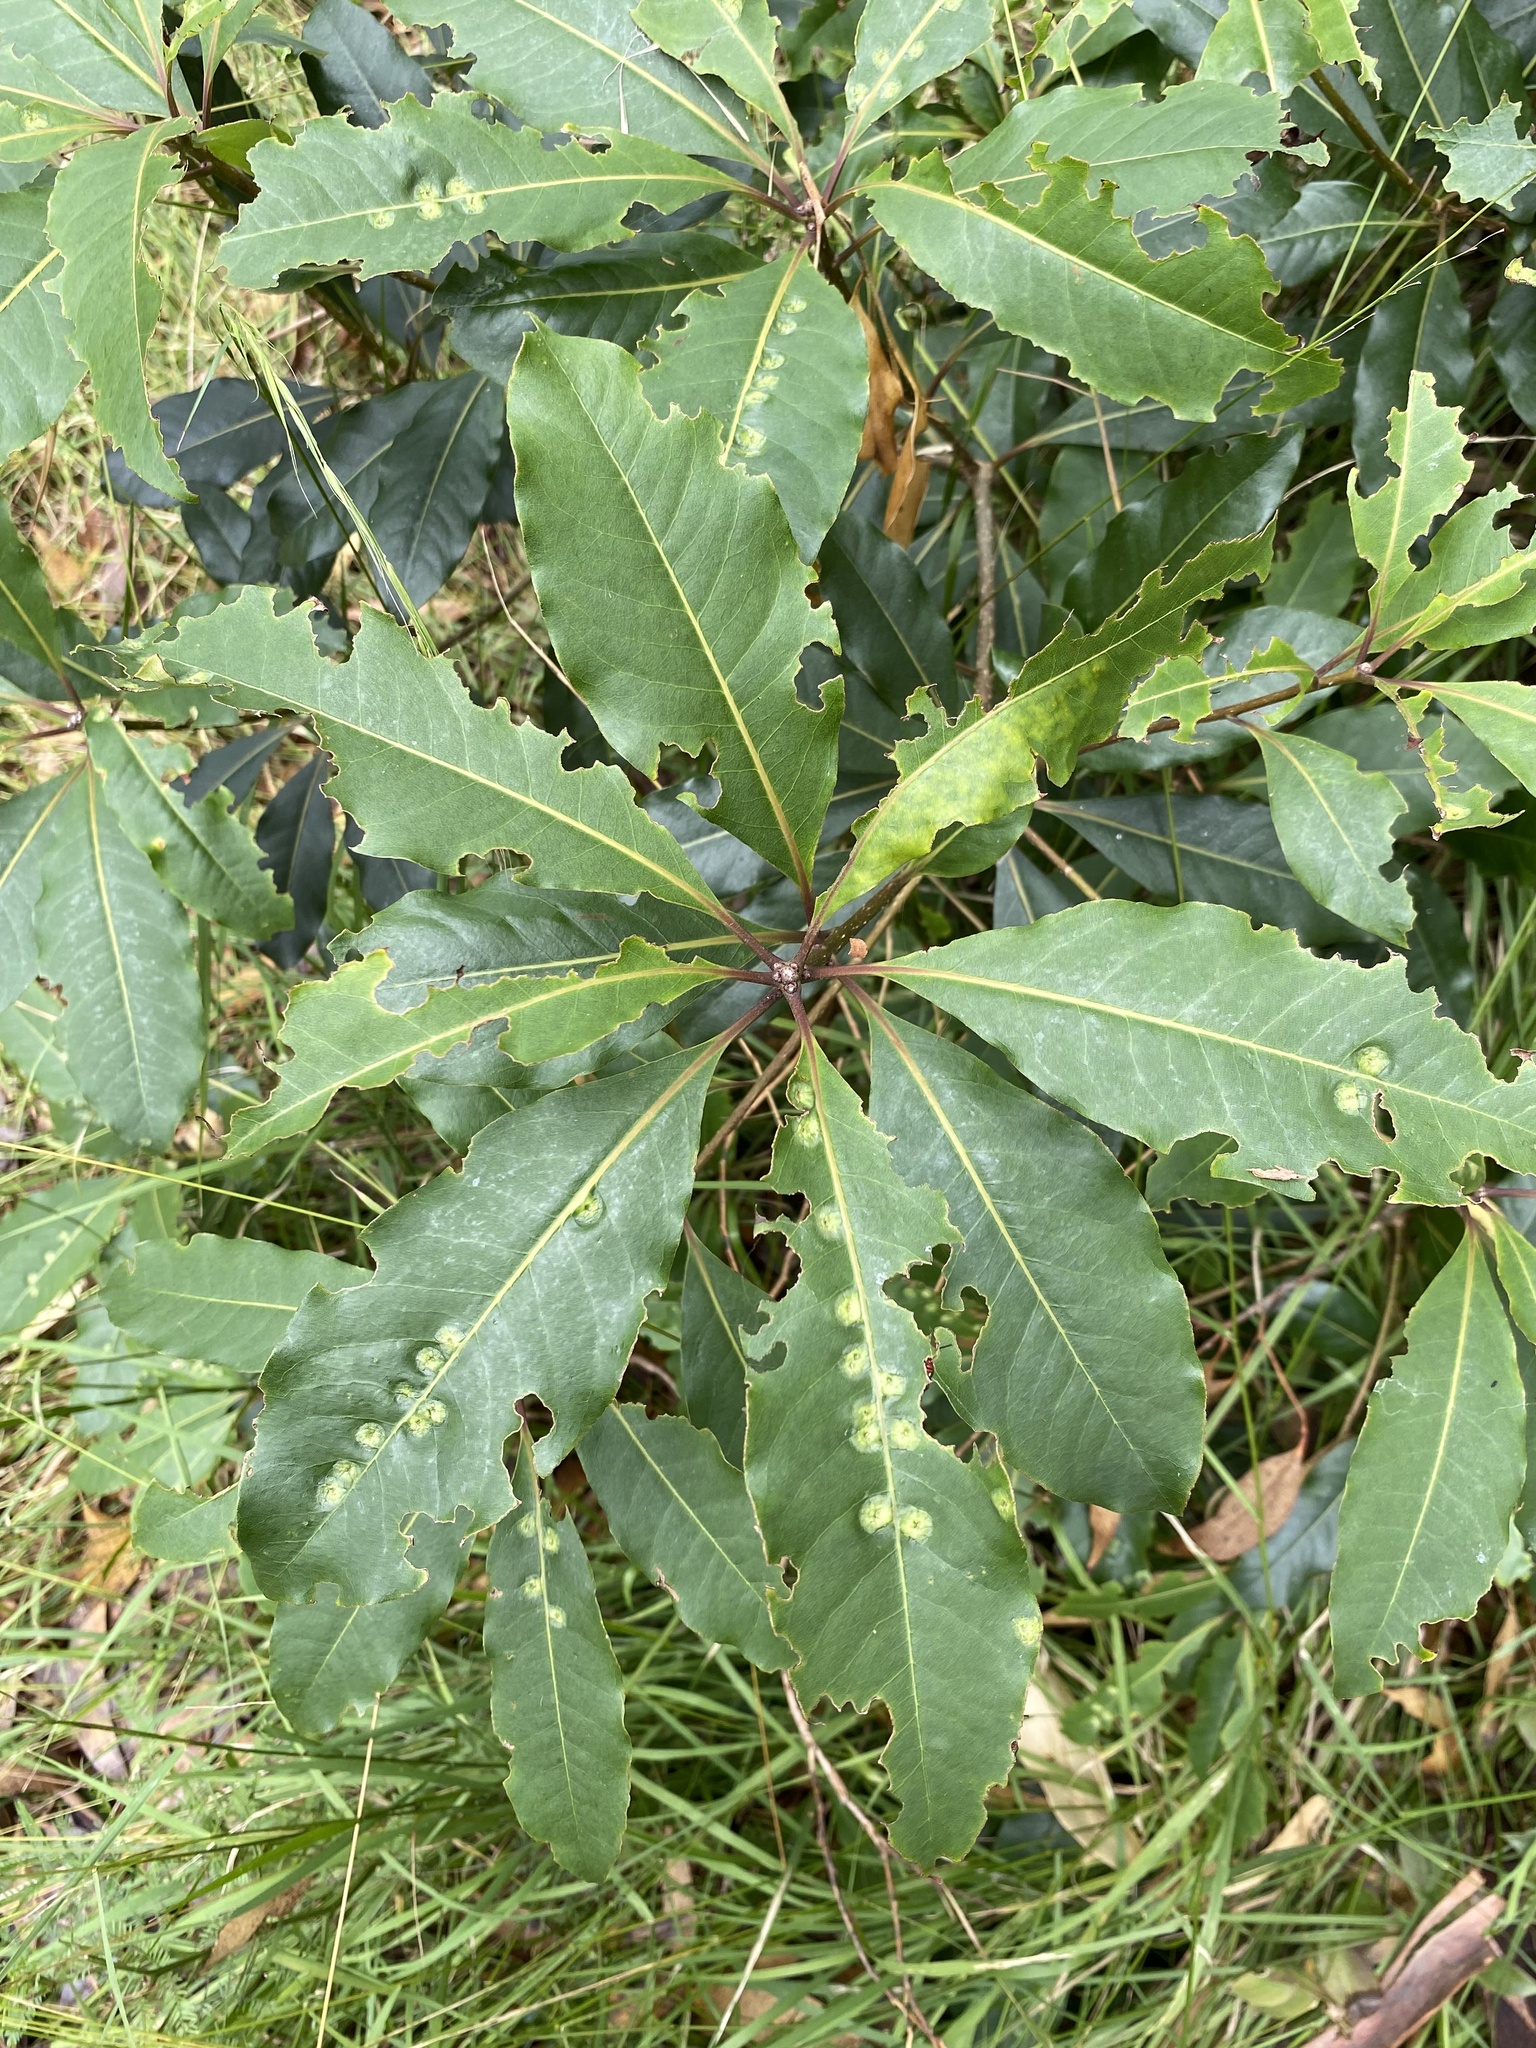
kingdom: Plantae
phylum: Tracheophyta
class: Magnoliopsida
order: Apiales
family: Pittosporaceae
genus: Pittosporum
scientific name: Pittosporum undulatum
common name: Australian cheesewood
